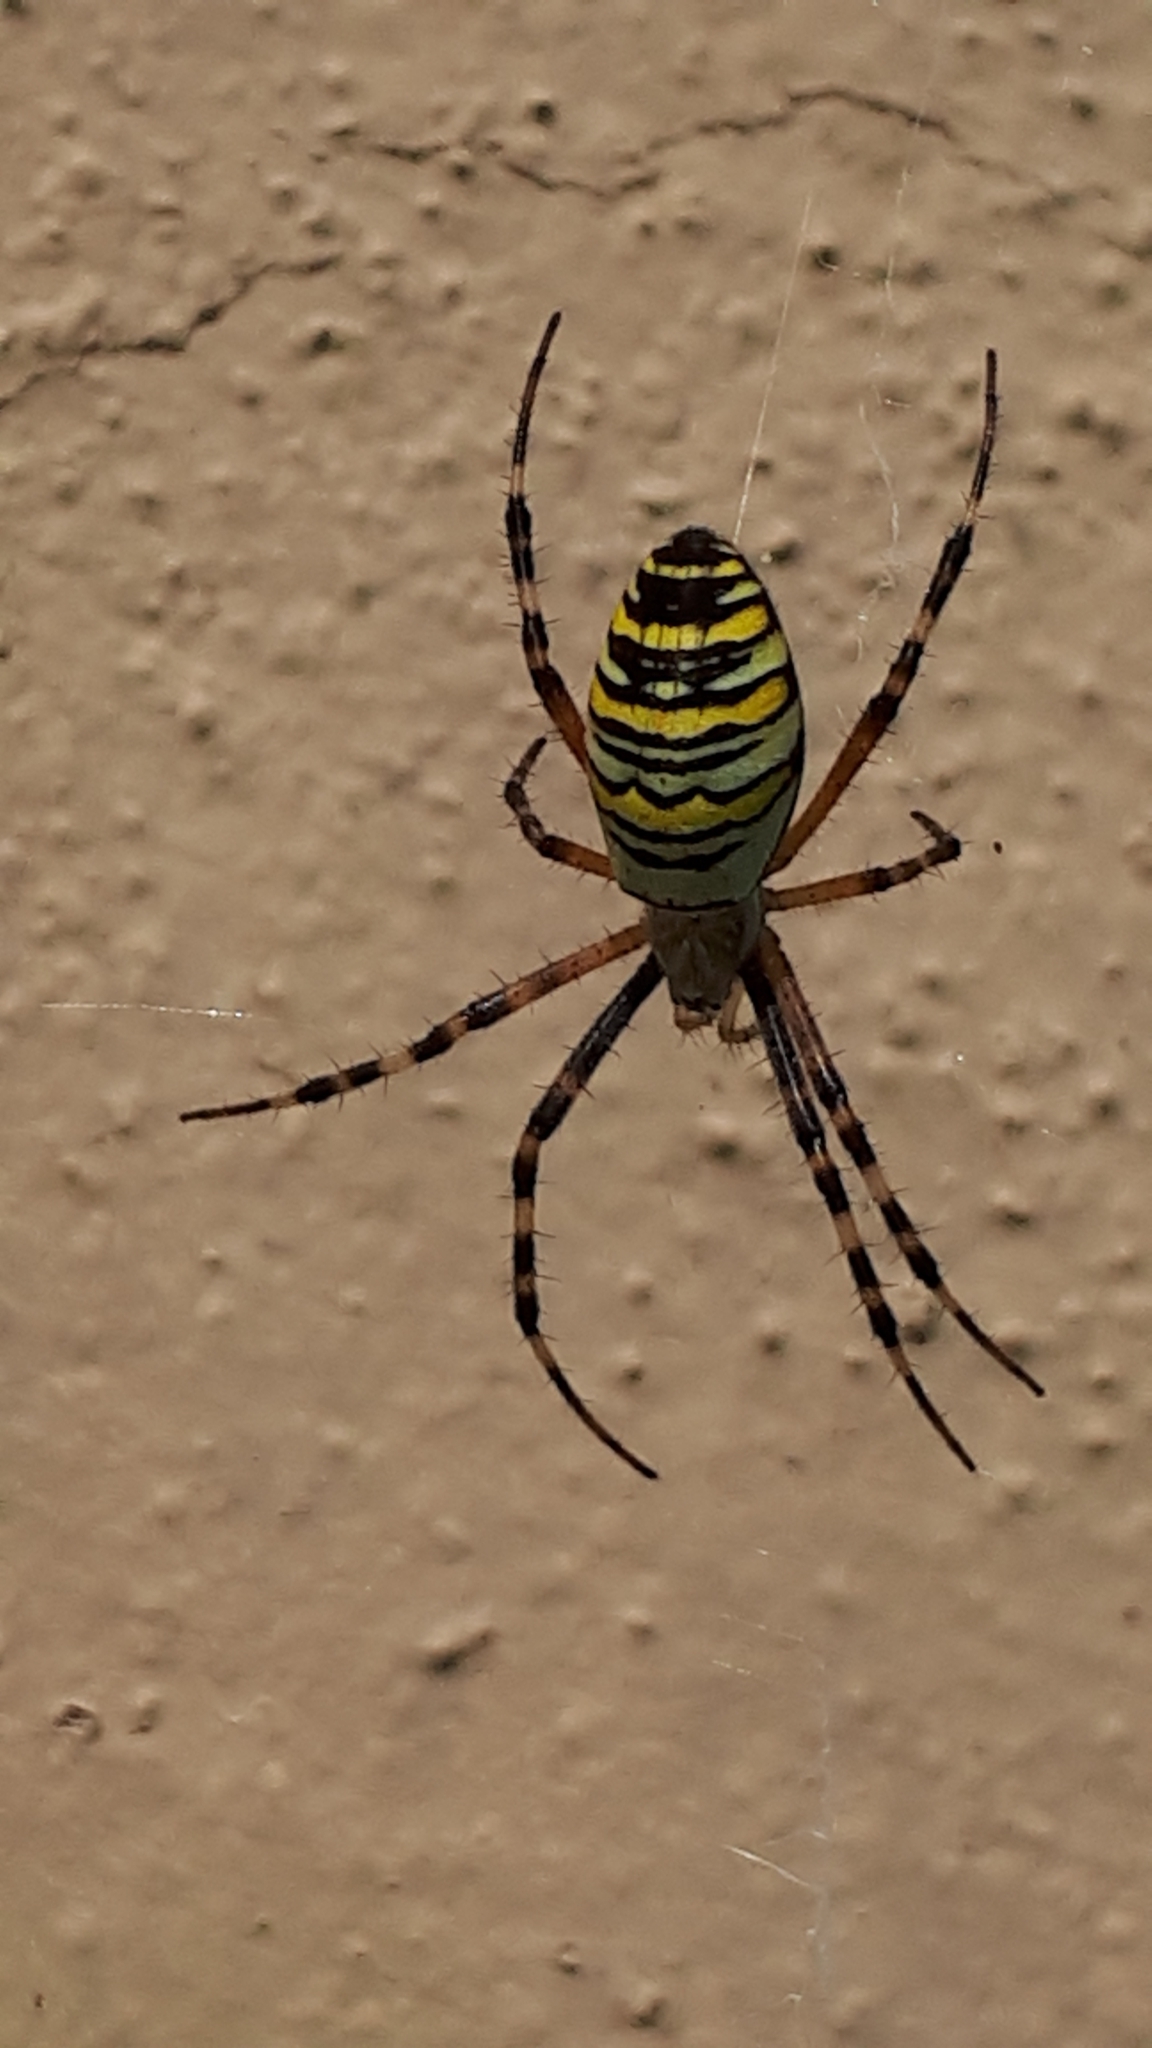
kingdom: Animalia
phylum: Arthropoda
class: Arachnida
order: Araneae
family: Araneidae
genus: Argiope
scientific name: Argiope bruennichi
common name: Wasp spider
